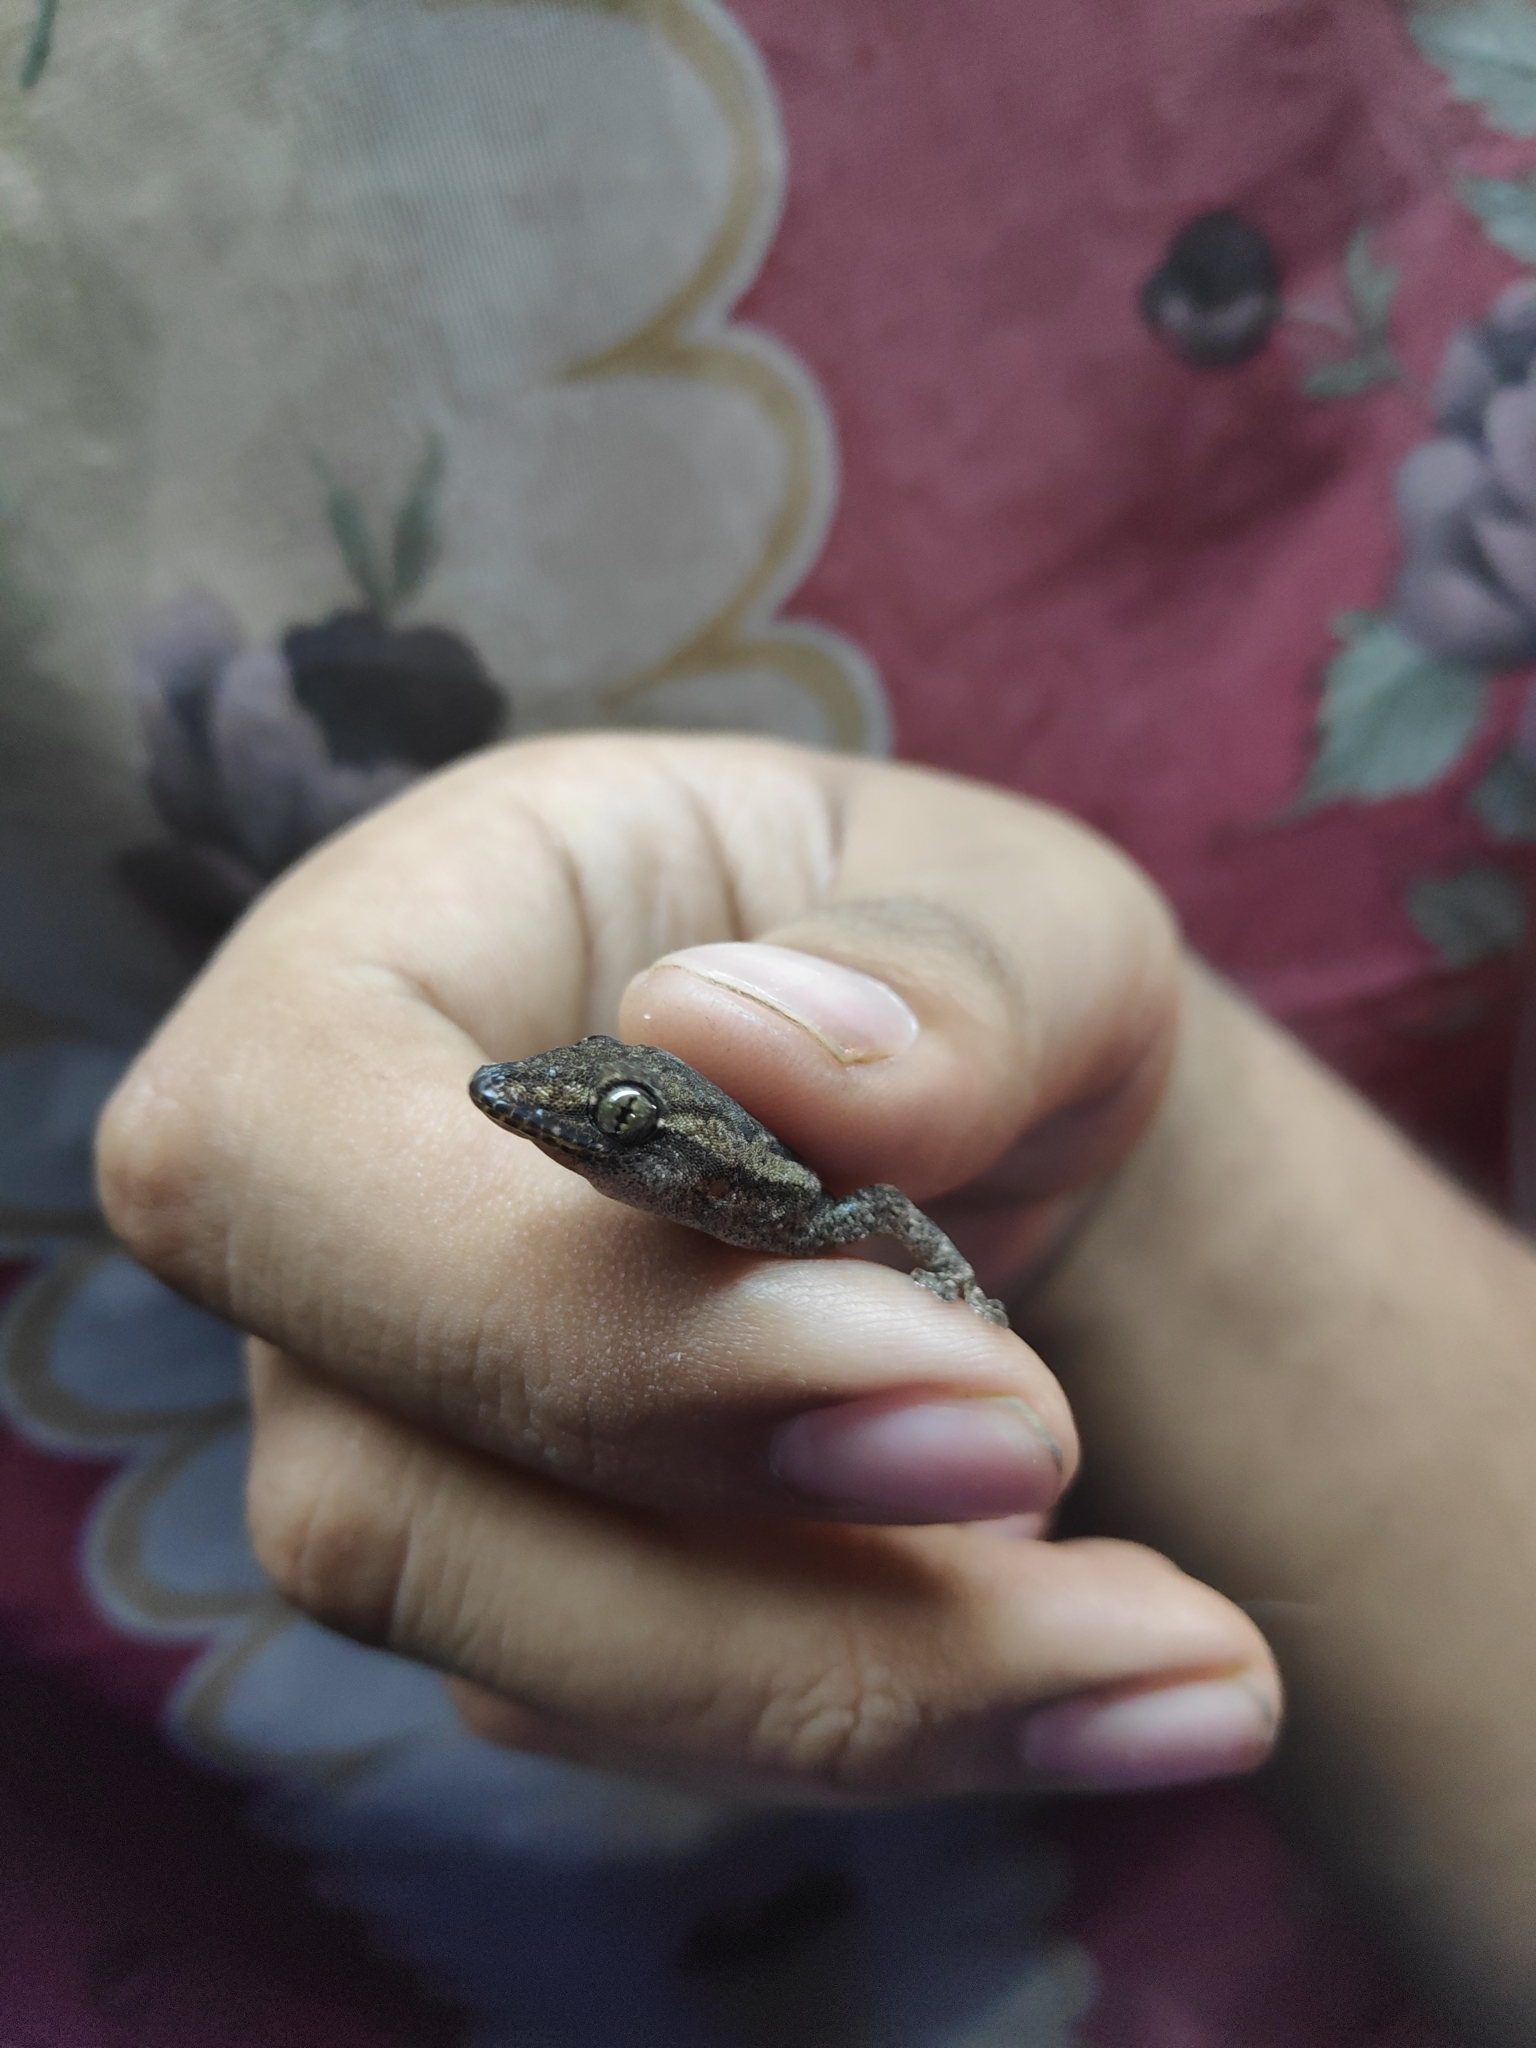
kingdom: Animalia
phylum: Chordata
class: Squamata
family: Gekkonidae
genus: Hemidactylus
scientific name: Hemidactylus frenatus
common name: Common house gecko
